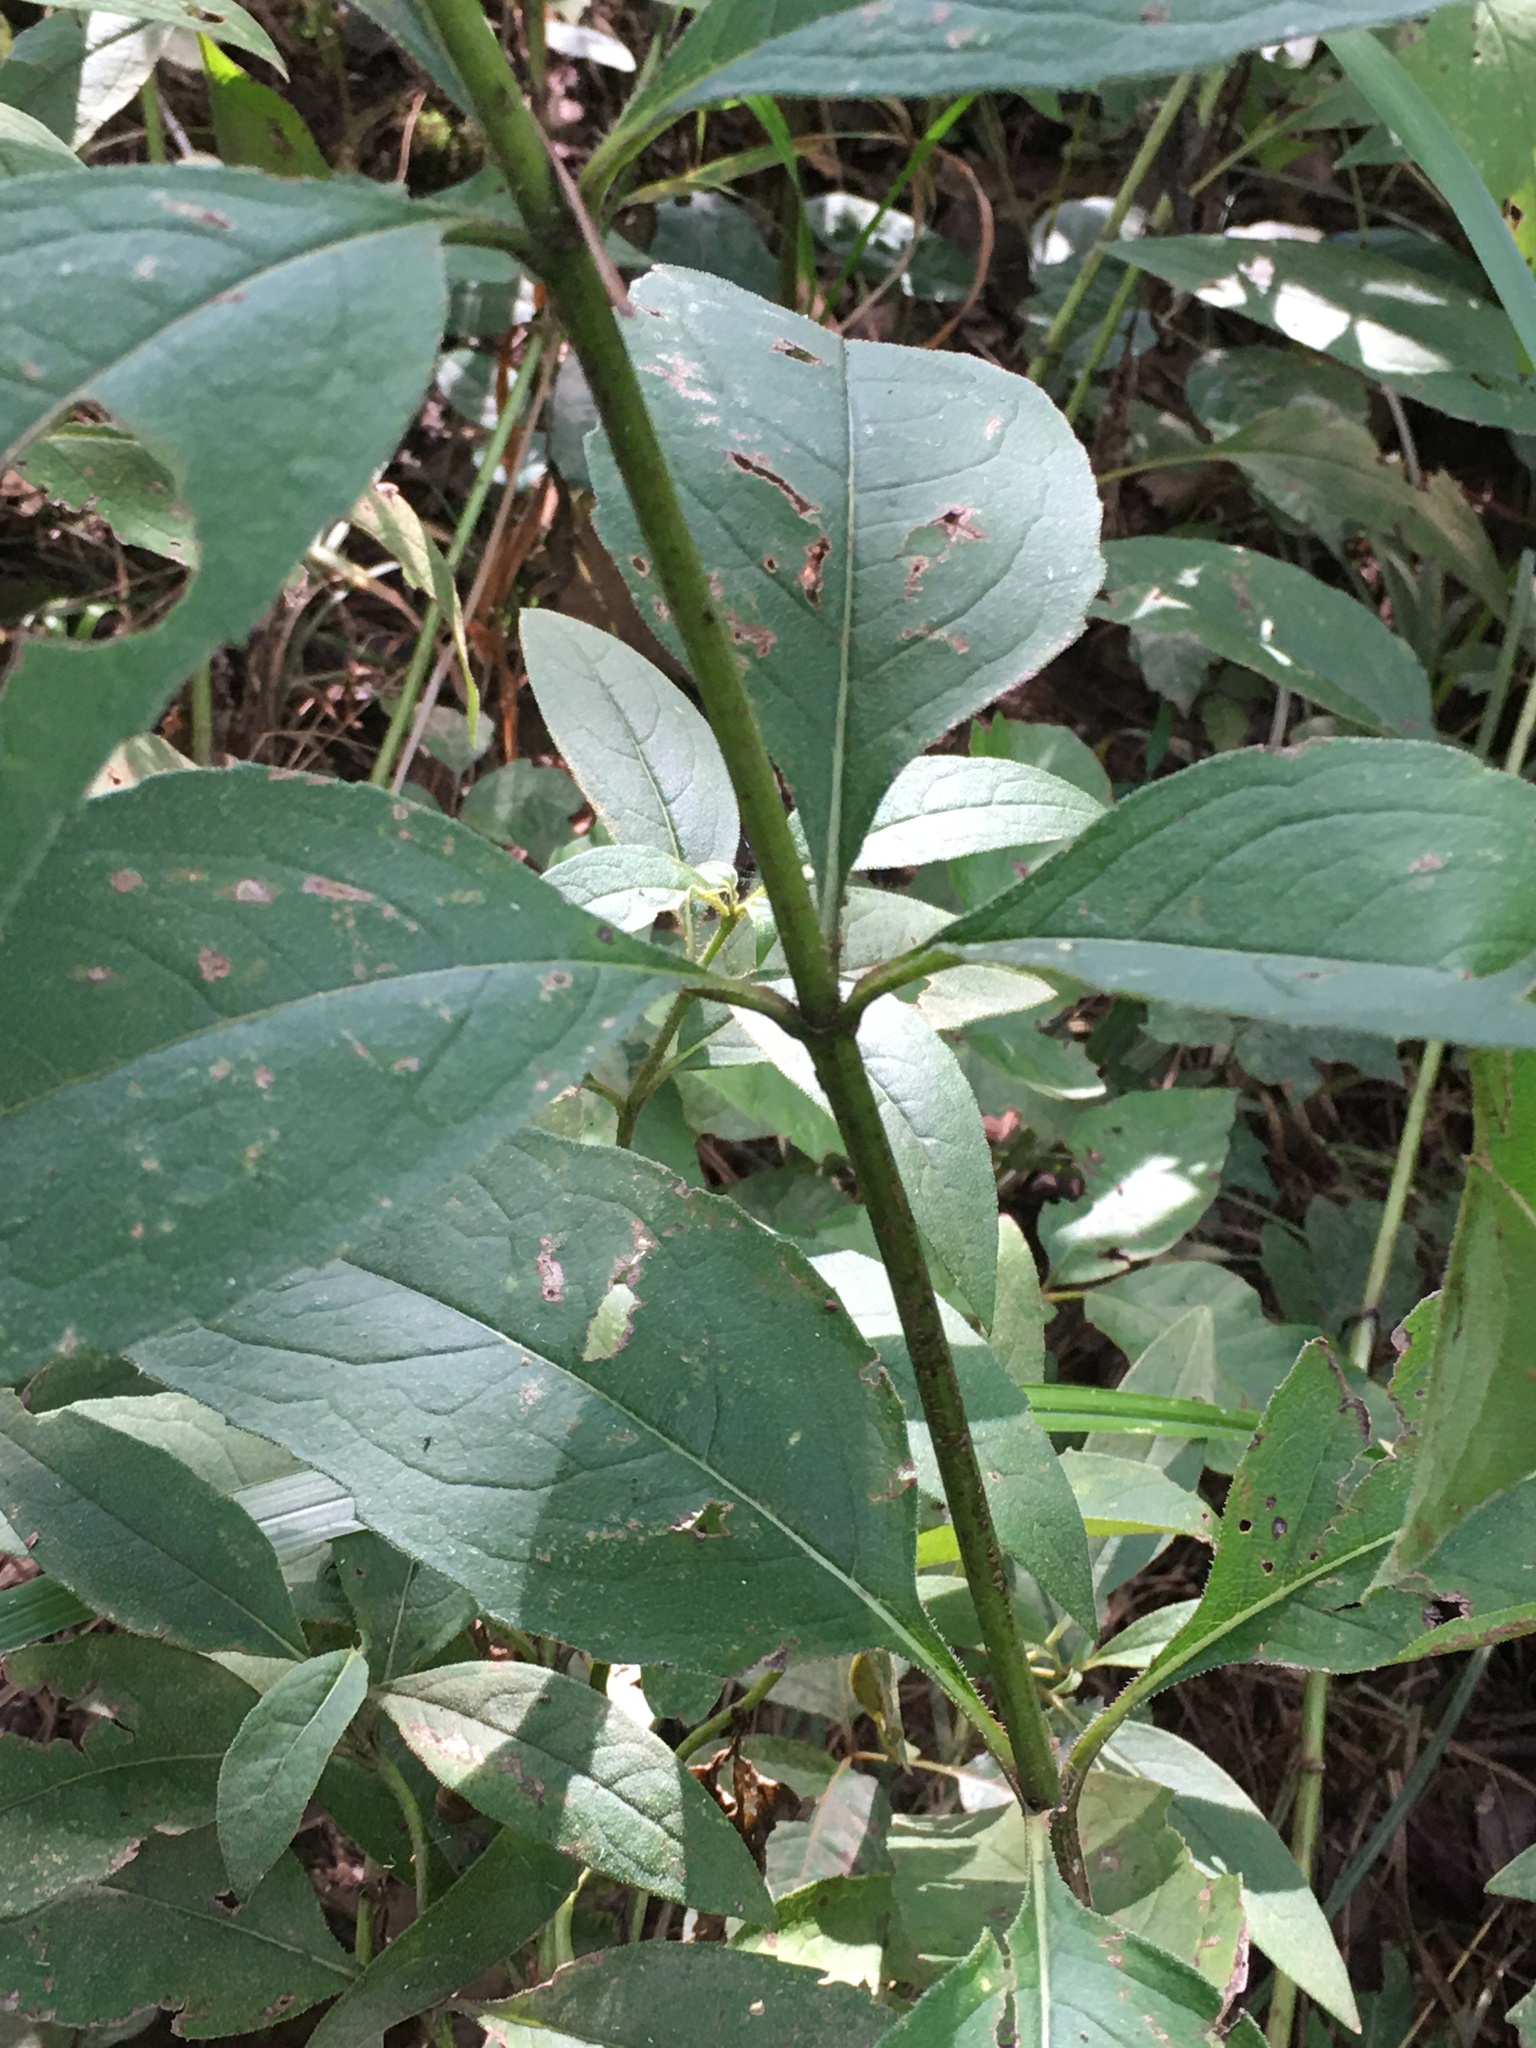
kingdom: Plantae
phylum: Tracheophyta
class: Magnoliopsida
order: Asterales
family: Asteraceae
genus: Silphium
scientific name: Silphium asteriscus
